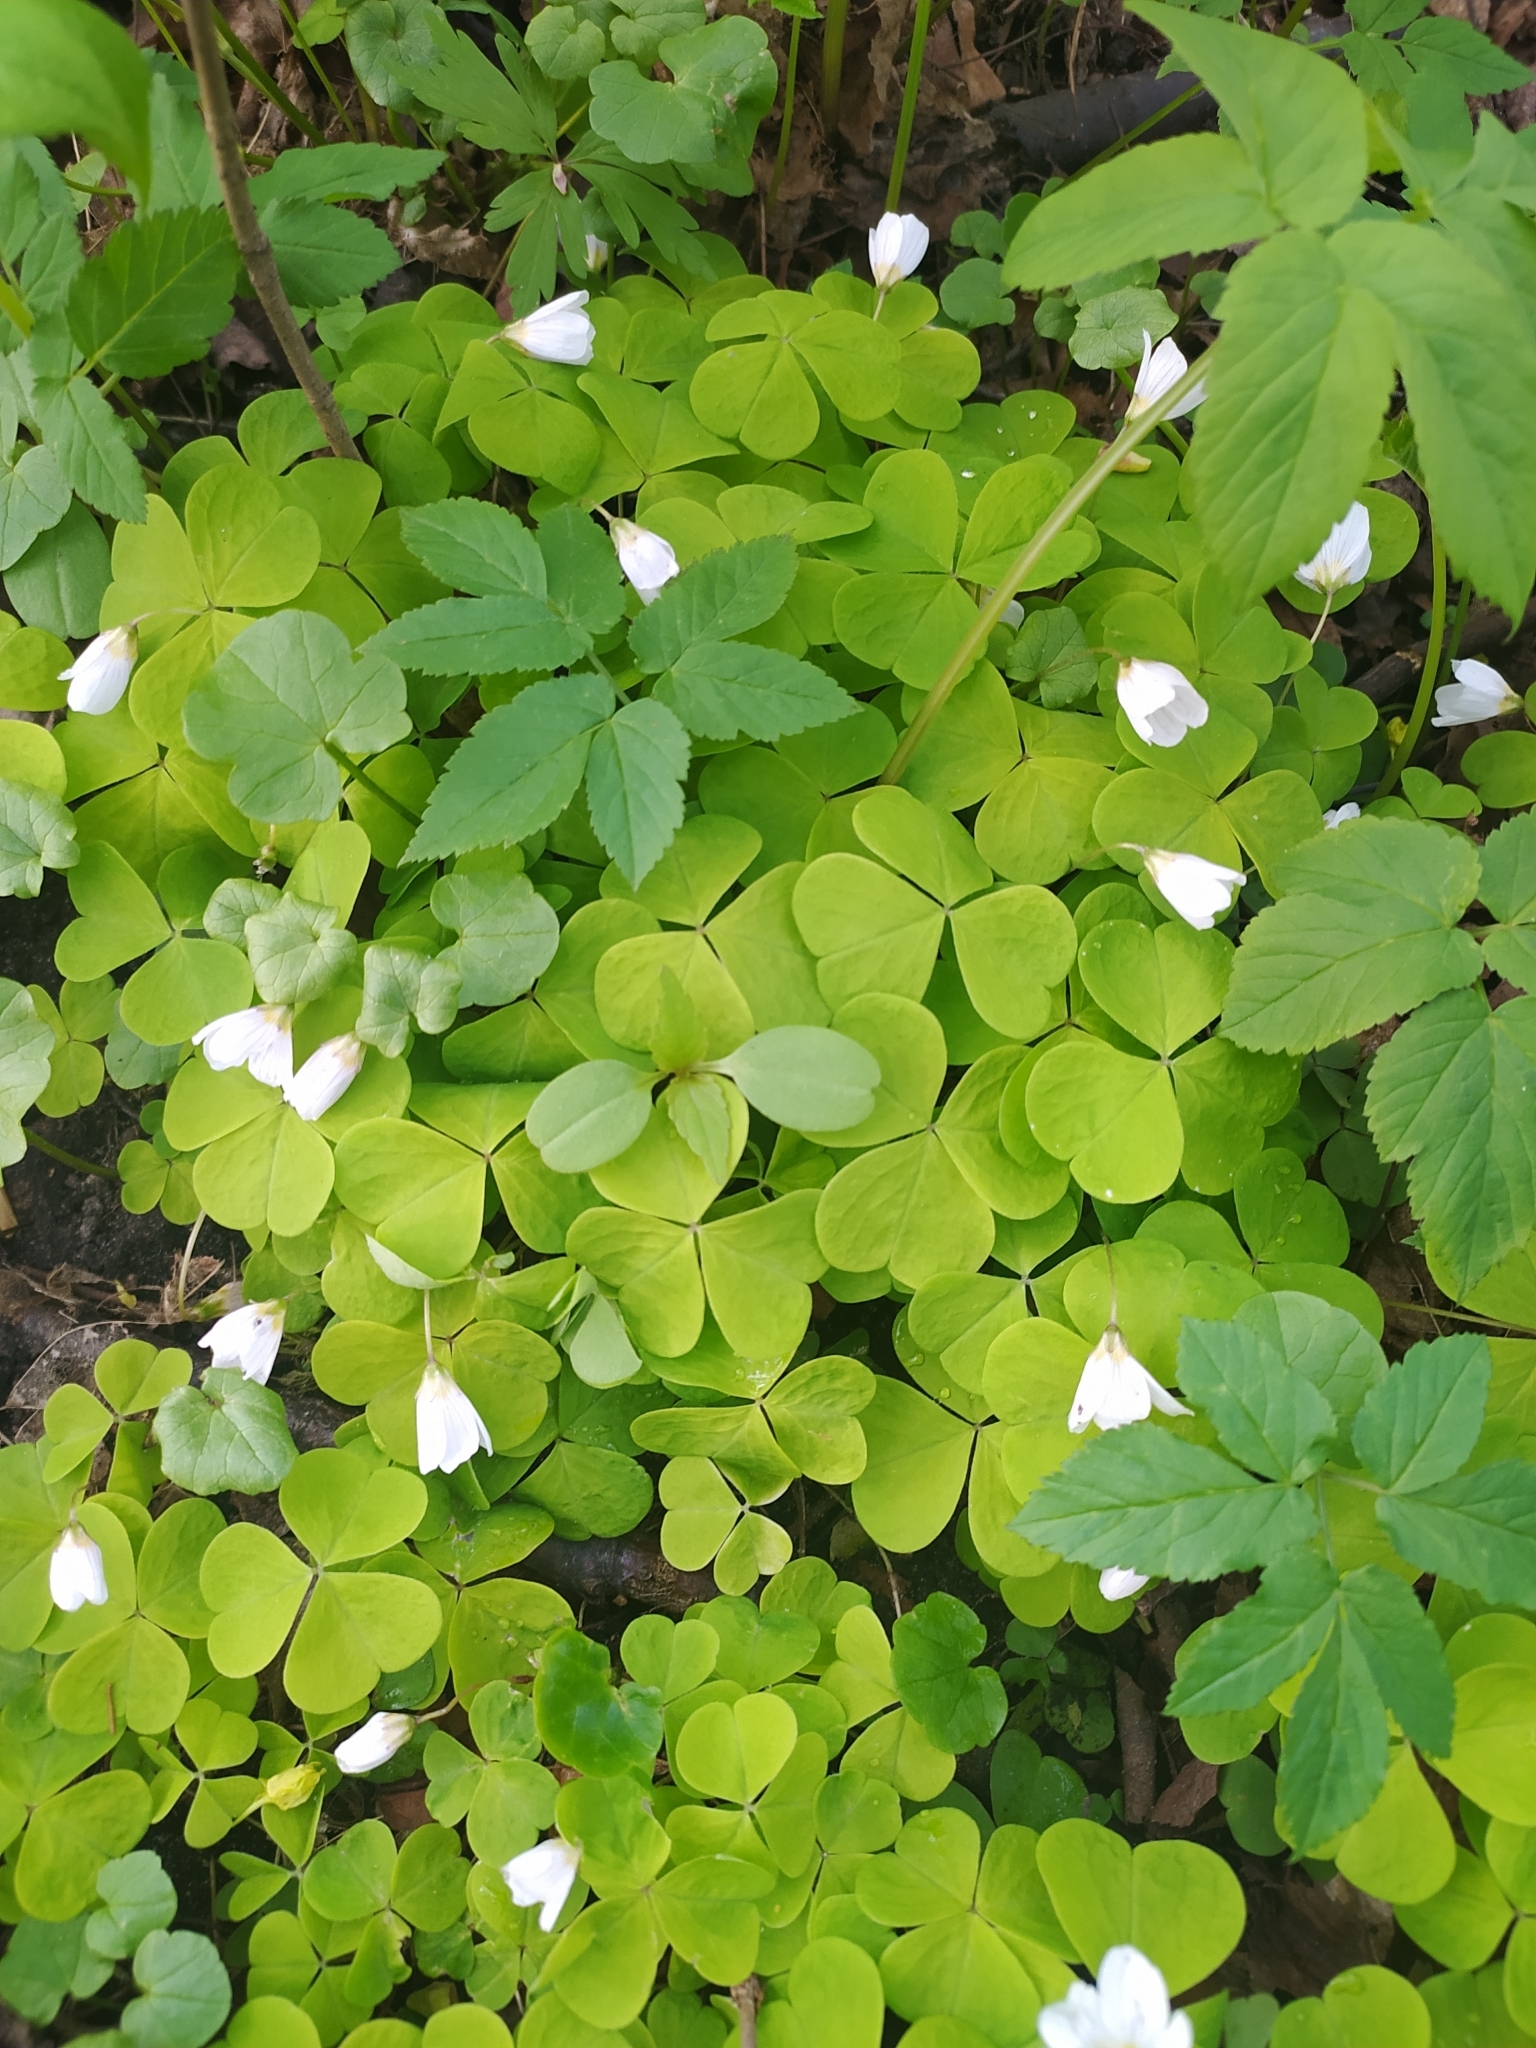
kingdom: Plantae
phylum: Tracheophyta
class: Magnoliopsida
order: Oxalidales
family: Oxalidaceae
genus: Oxalis
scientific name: Oxalis acetosella
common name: Wood-sorrel
